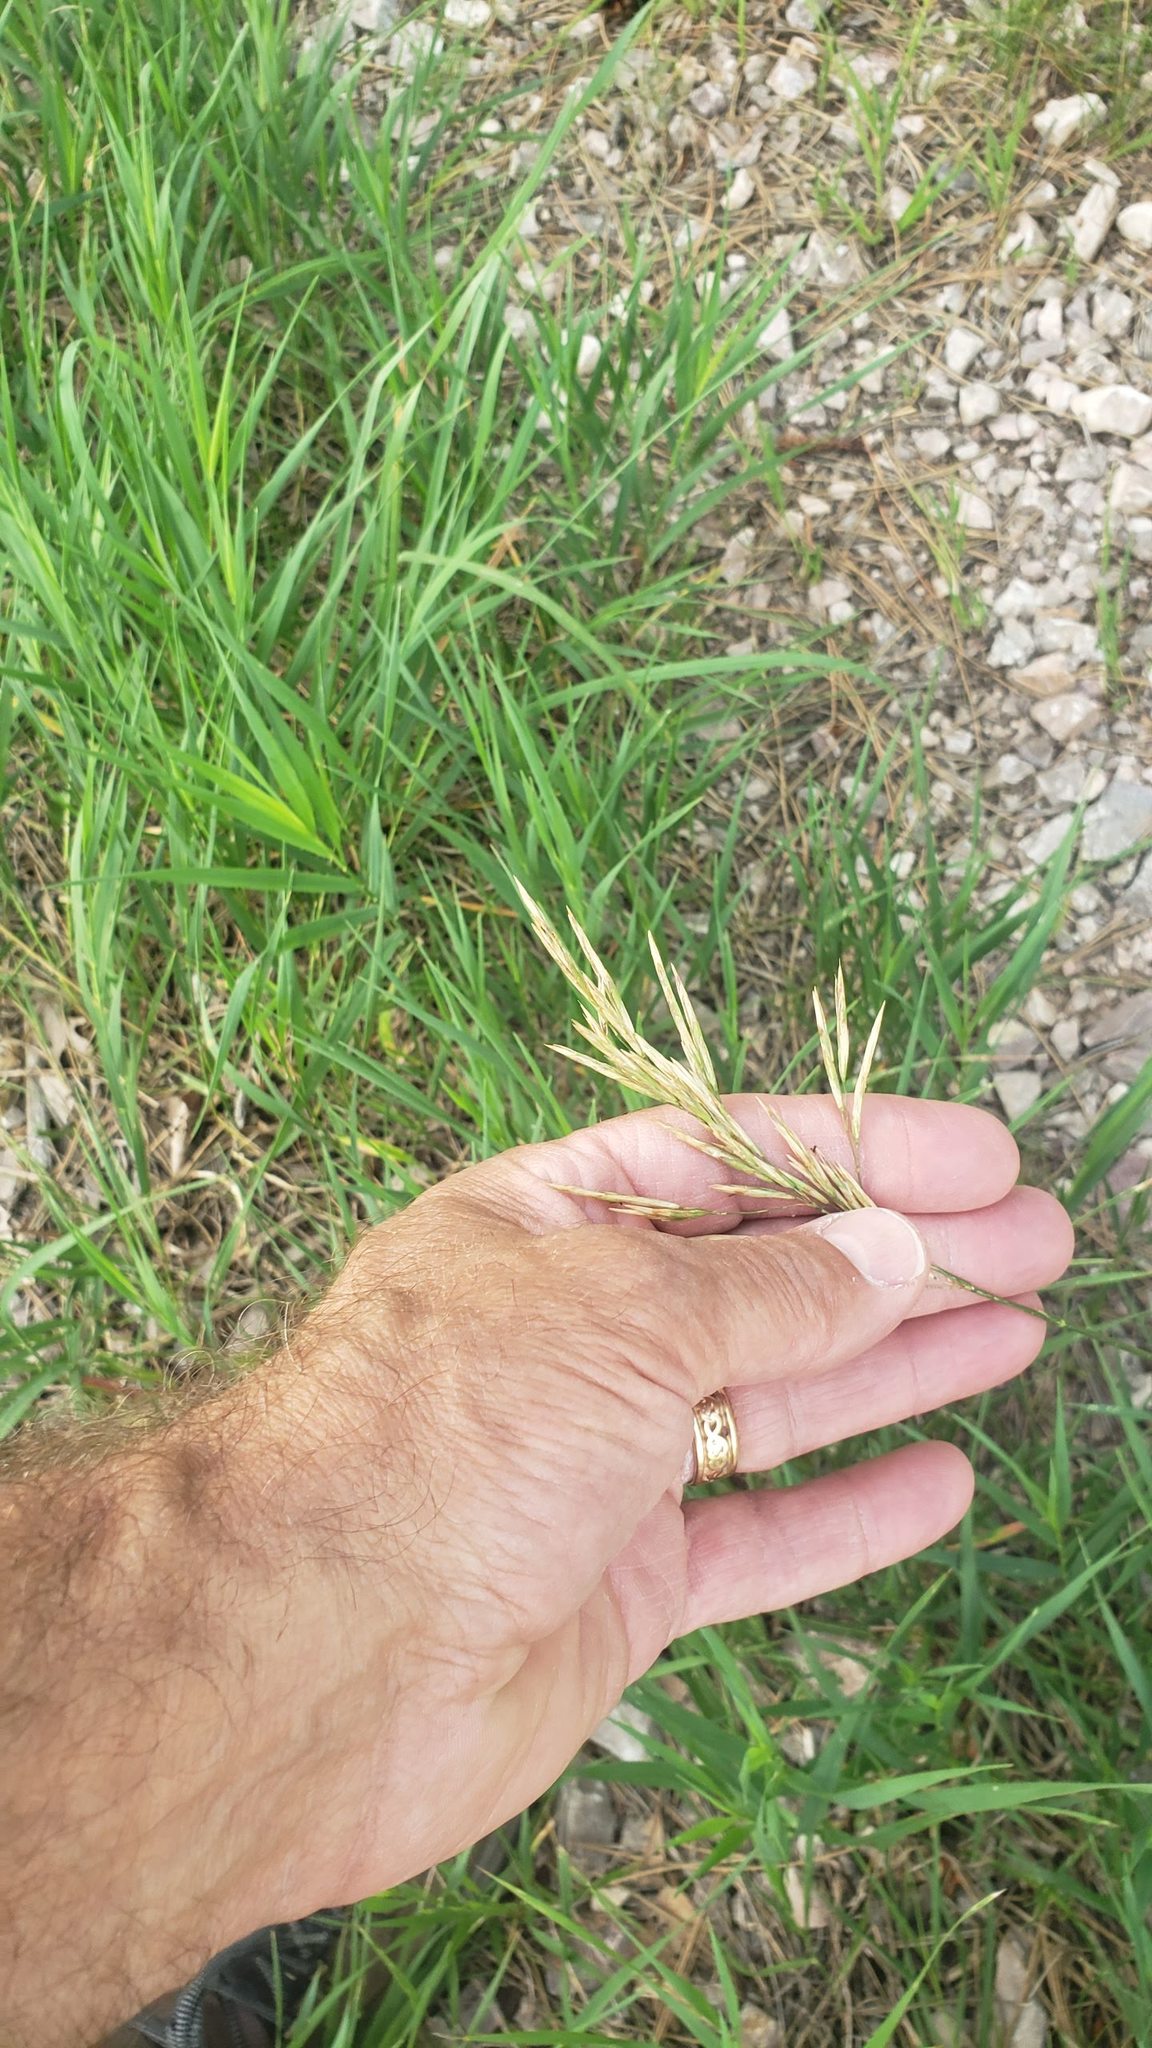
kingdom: Plantae
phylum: Tracheophyta
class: Liliopsida
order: Poales
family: Poaceae
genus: Bromus
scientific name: Bromus inermis
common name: Smooth brome
